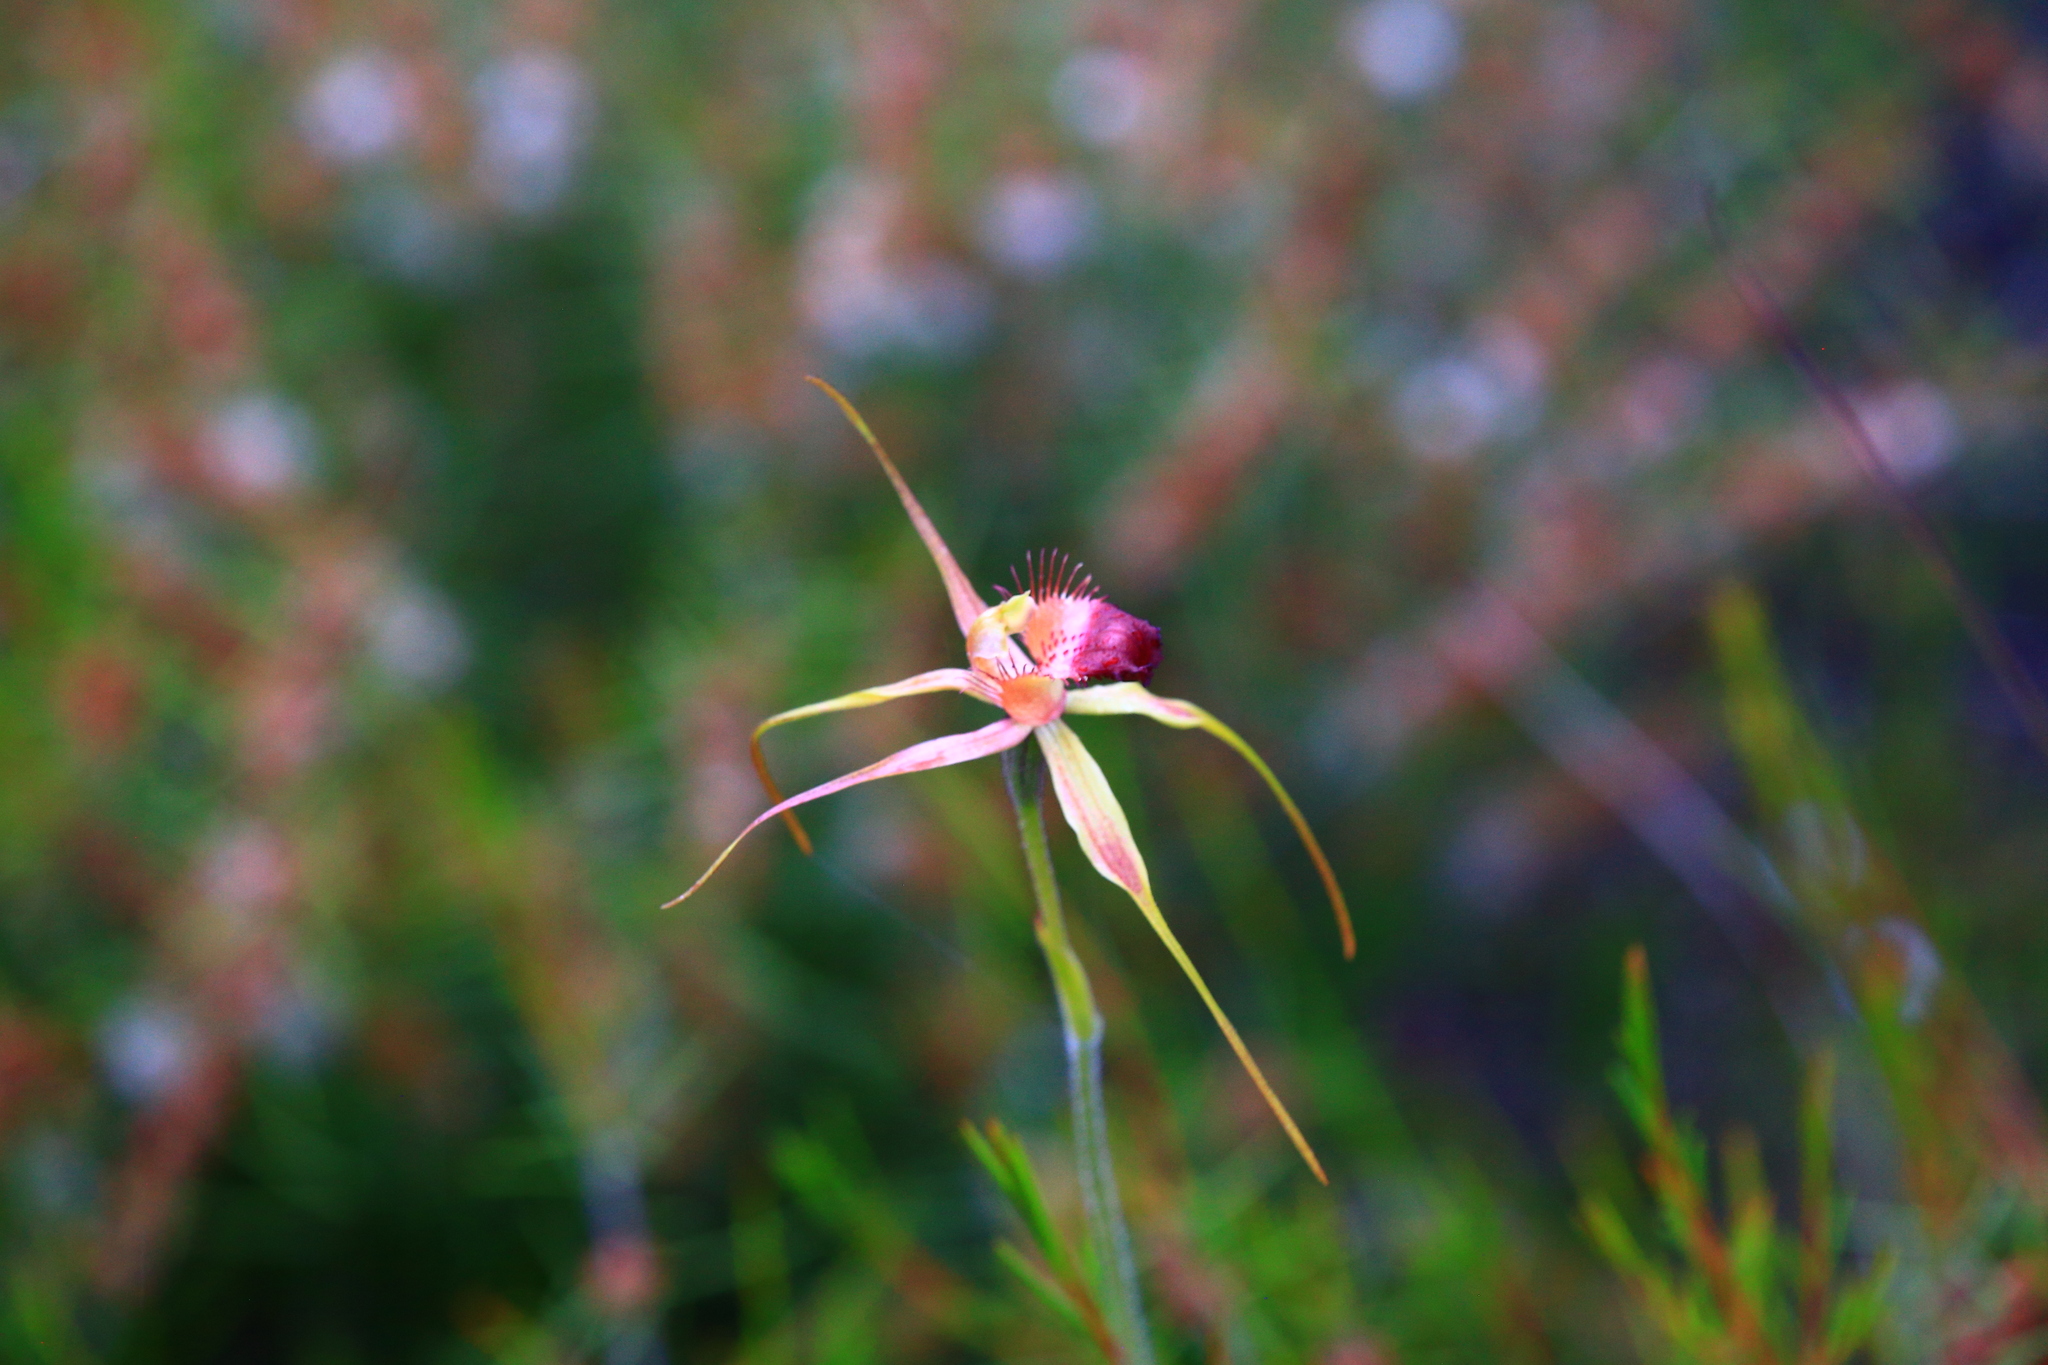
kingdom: Plantae
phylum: Tracheophyta
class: Liliopsida
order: Asparagales
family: Orchidaceae
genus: Caladenia
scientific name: Caladenia brownii
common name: Kari spider orchid
